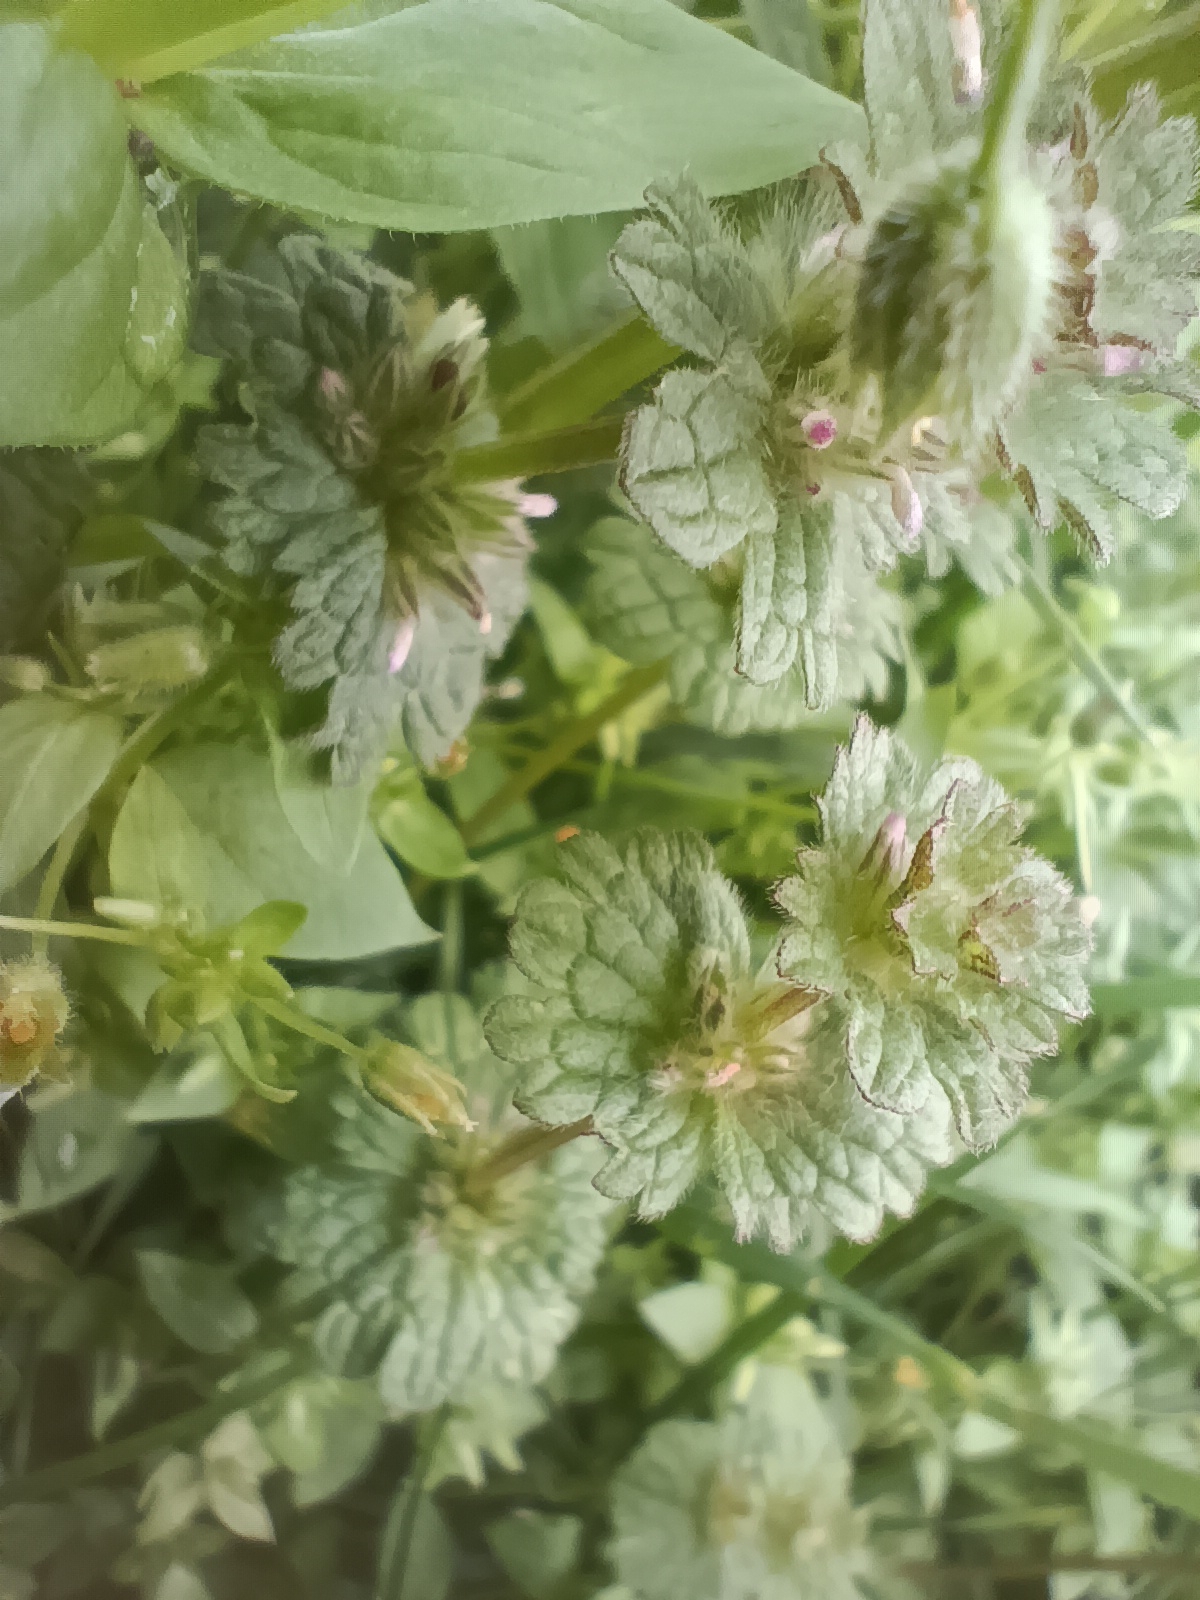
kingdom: Plantae
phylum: Tracheophyta
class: Magnoliopsida
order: Lamiales
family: Lamiaceae
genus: Lamium
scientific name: Lamium amplexicaule
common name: Henbit dead-nettle
